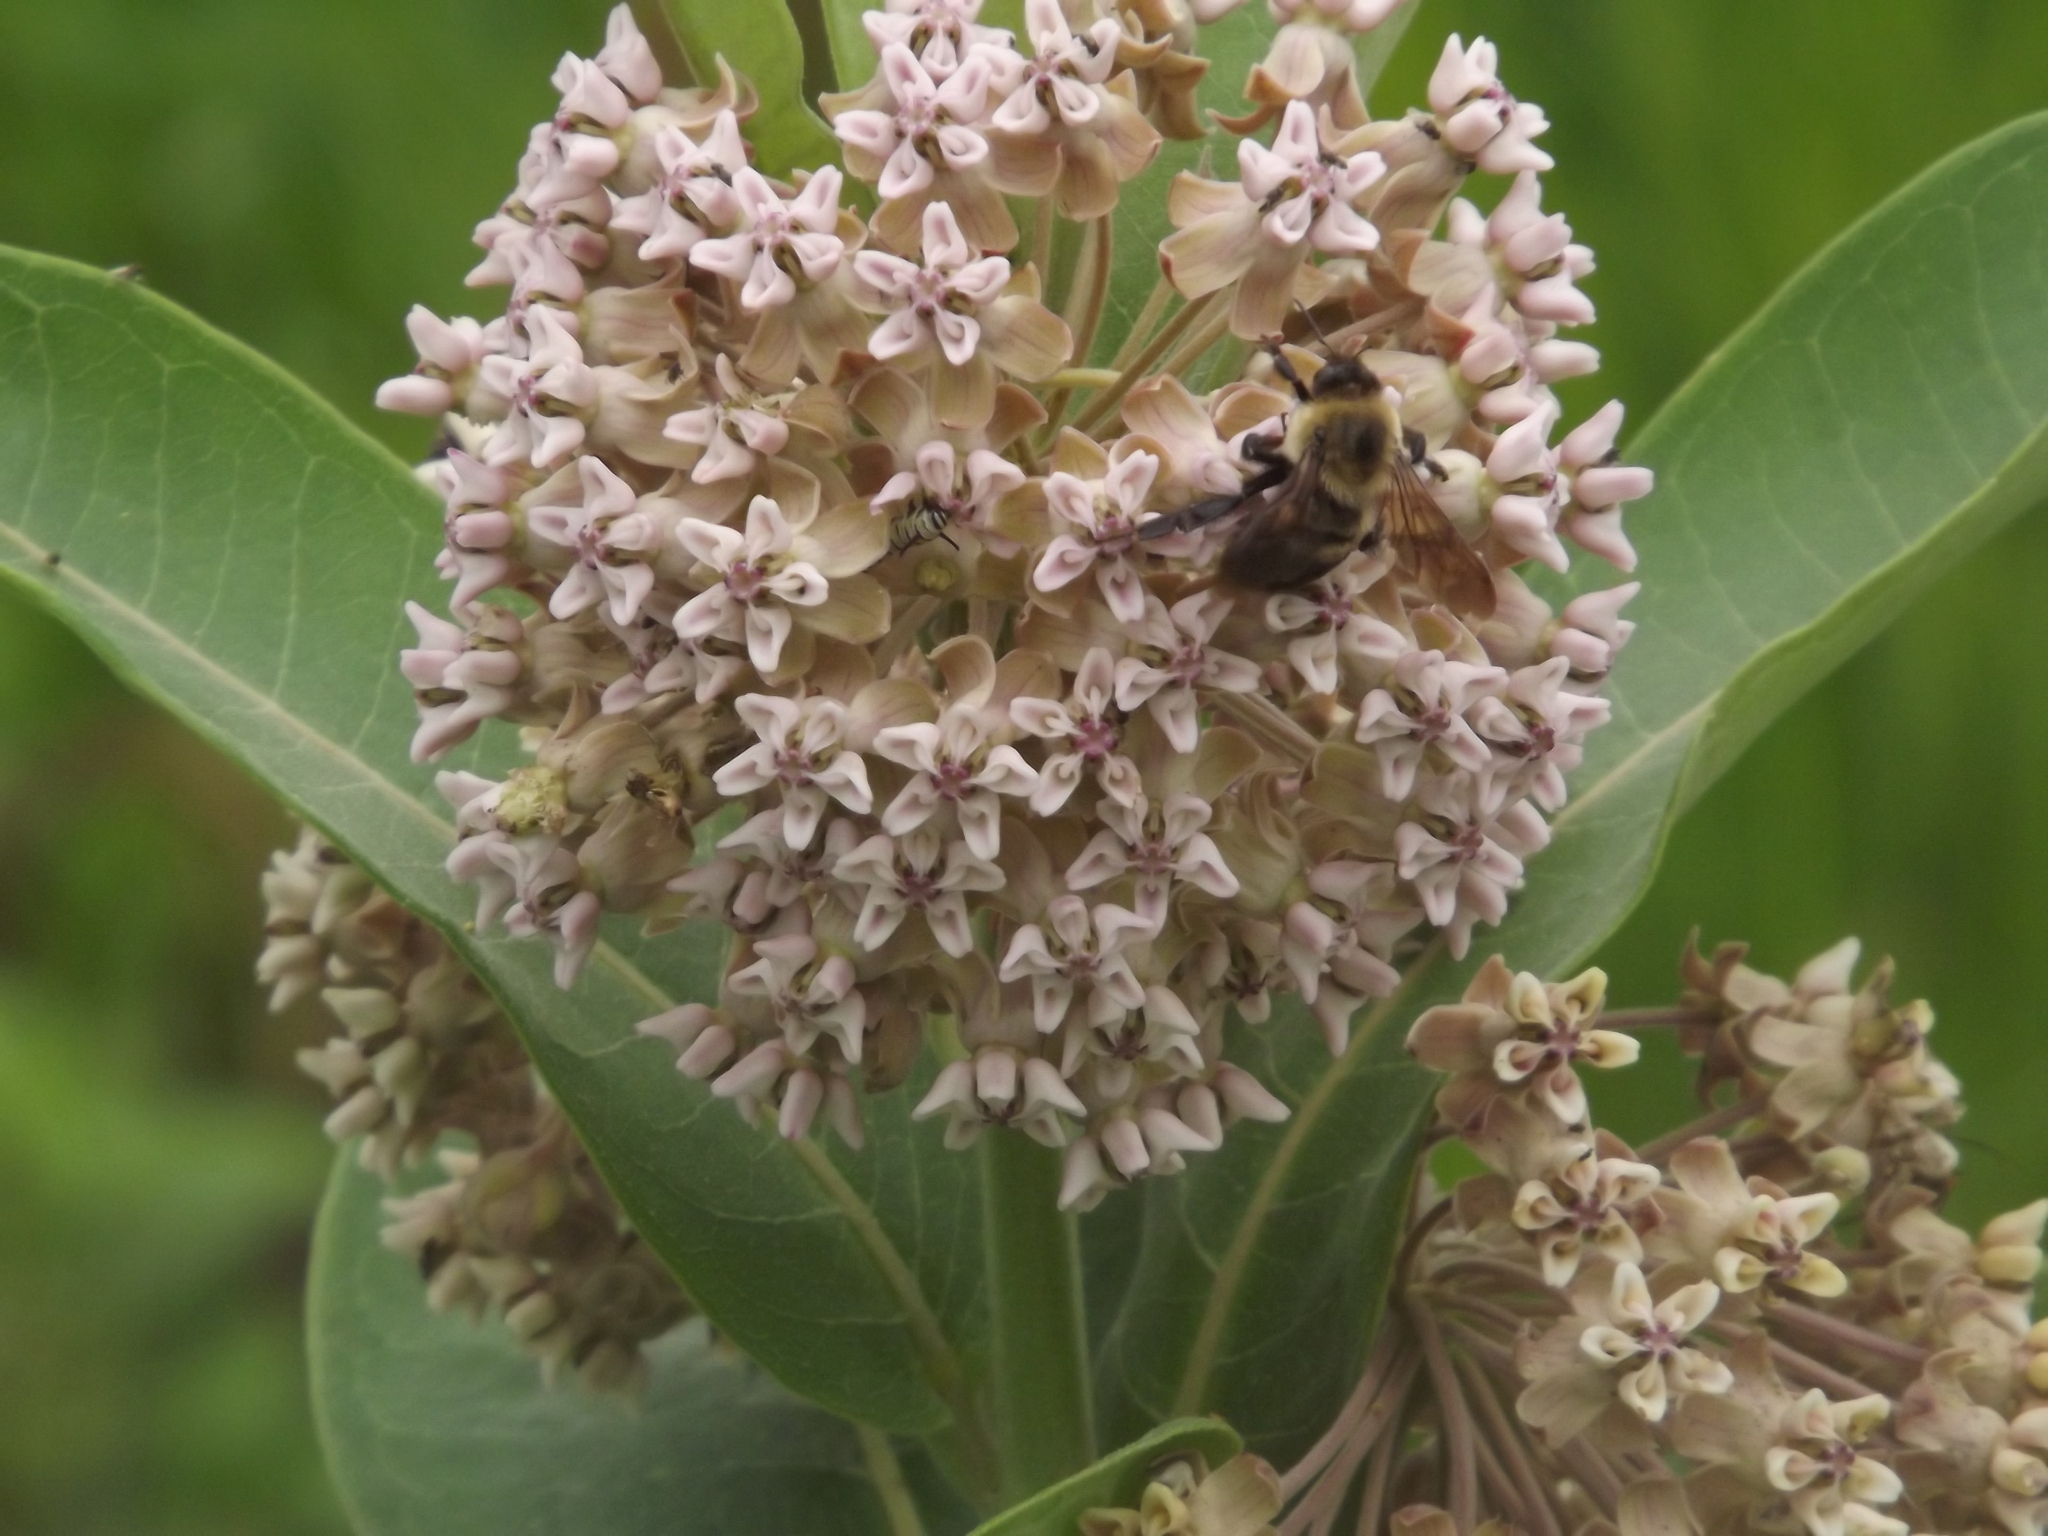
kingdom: Animalia
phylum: Arthropoda
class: Insecta
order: Hymenoptera
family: Apidae
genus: Bombus
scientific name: Bombus griseocollis
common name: Brown-belted bumble bee
